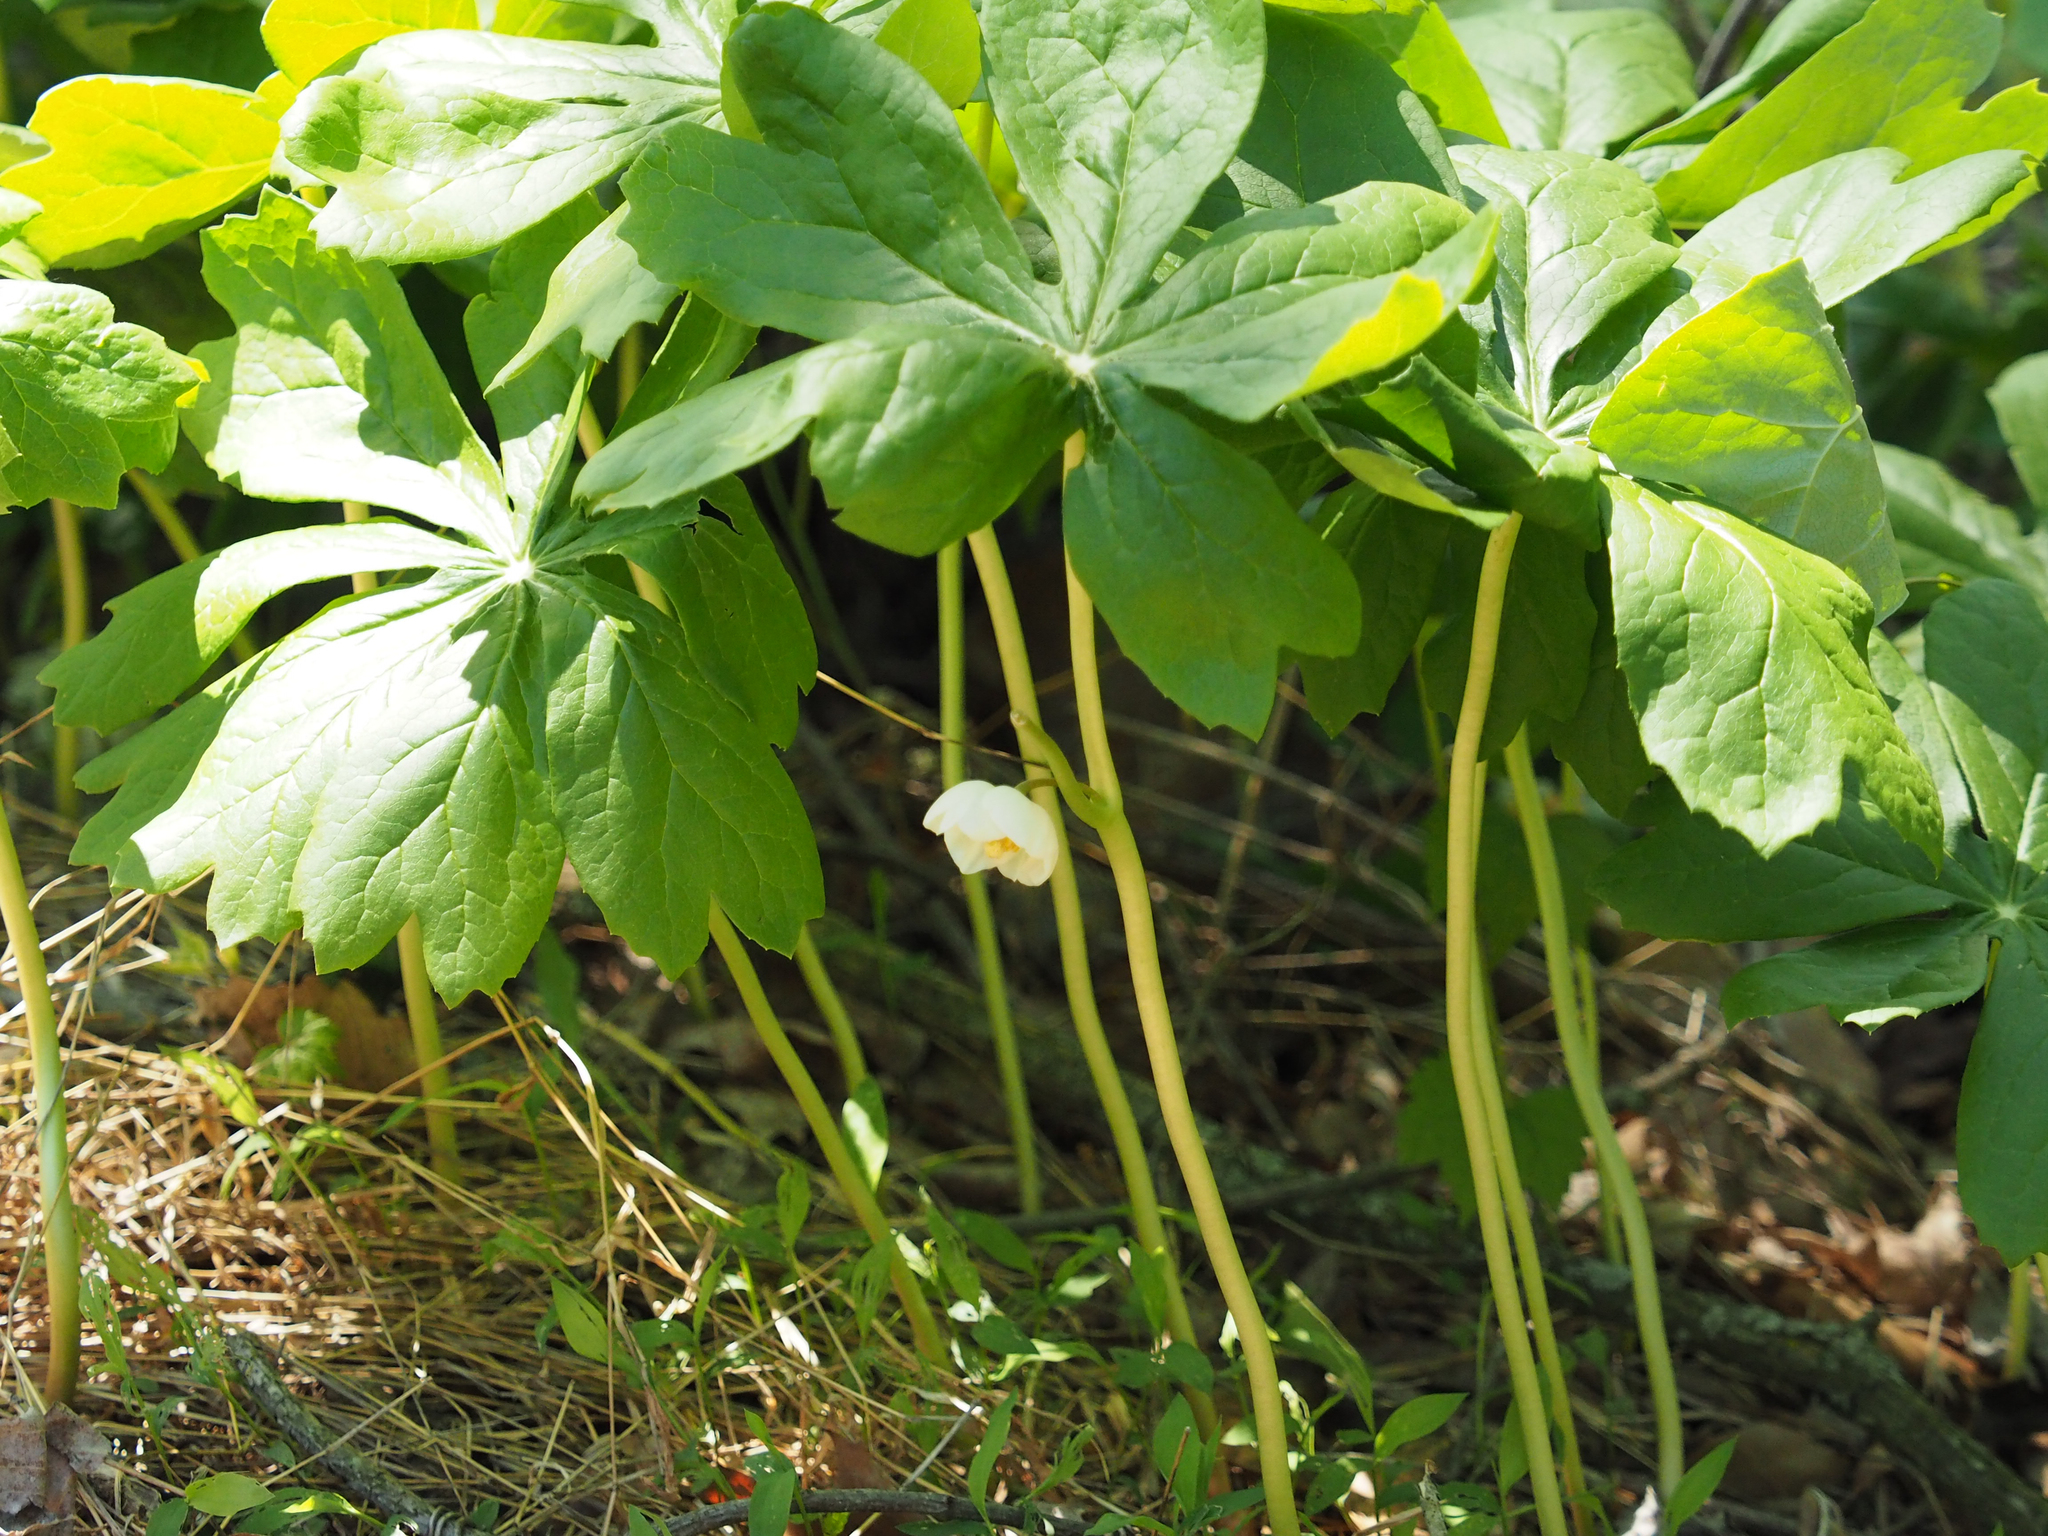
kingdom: Plantae
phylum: Tracheophyta
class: Magnoliopsida
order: Ranunculales
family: Berberidaceae
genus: Podophyllum
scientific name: Podophyllum peltatum
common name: Wild mandrake
